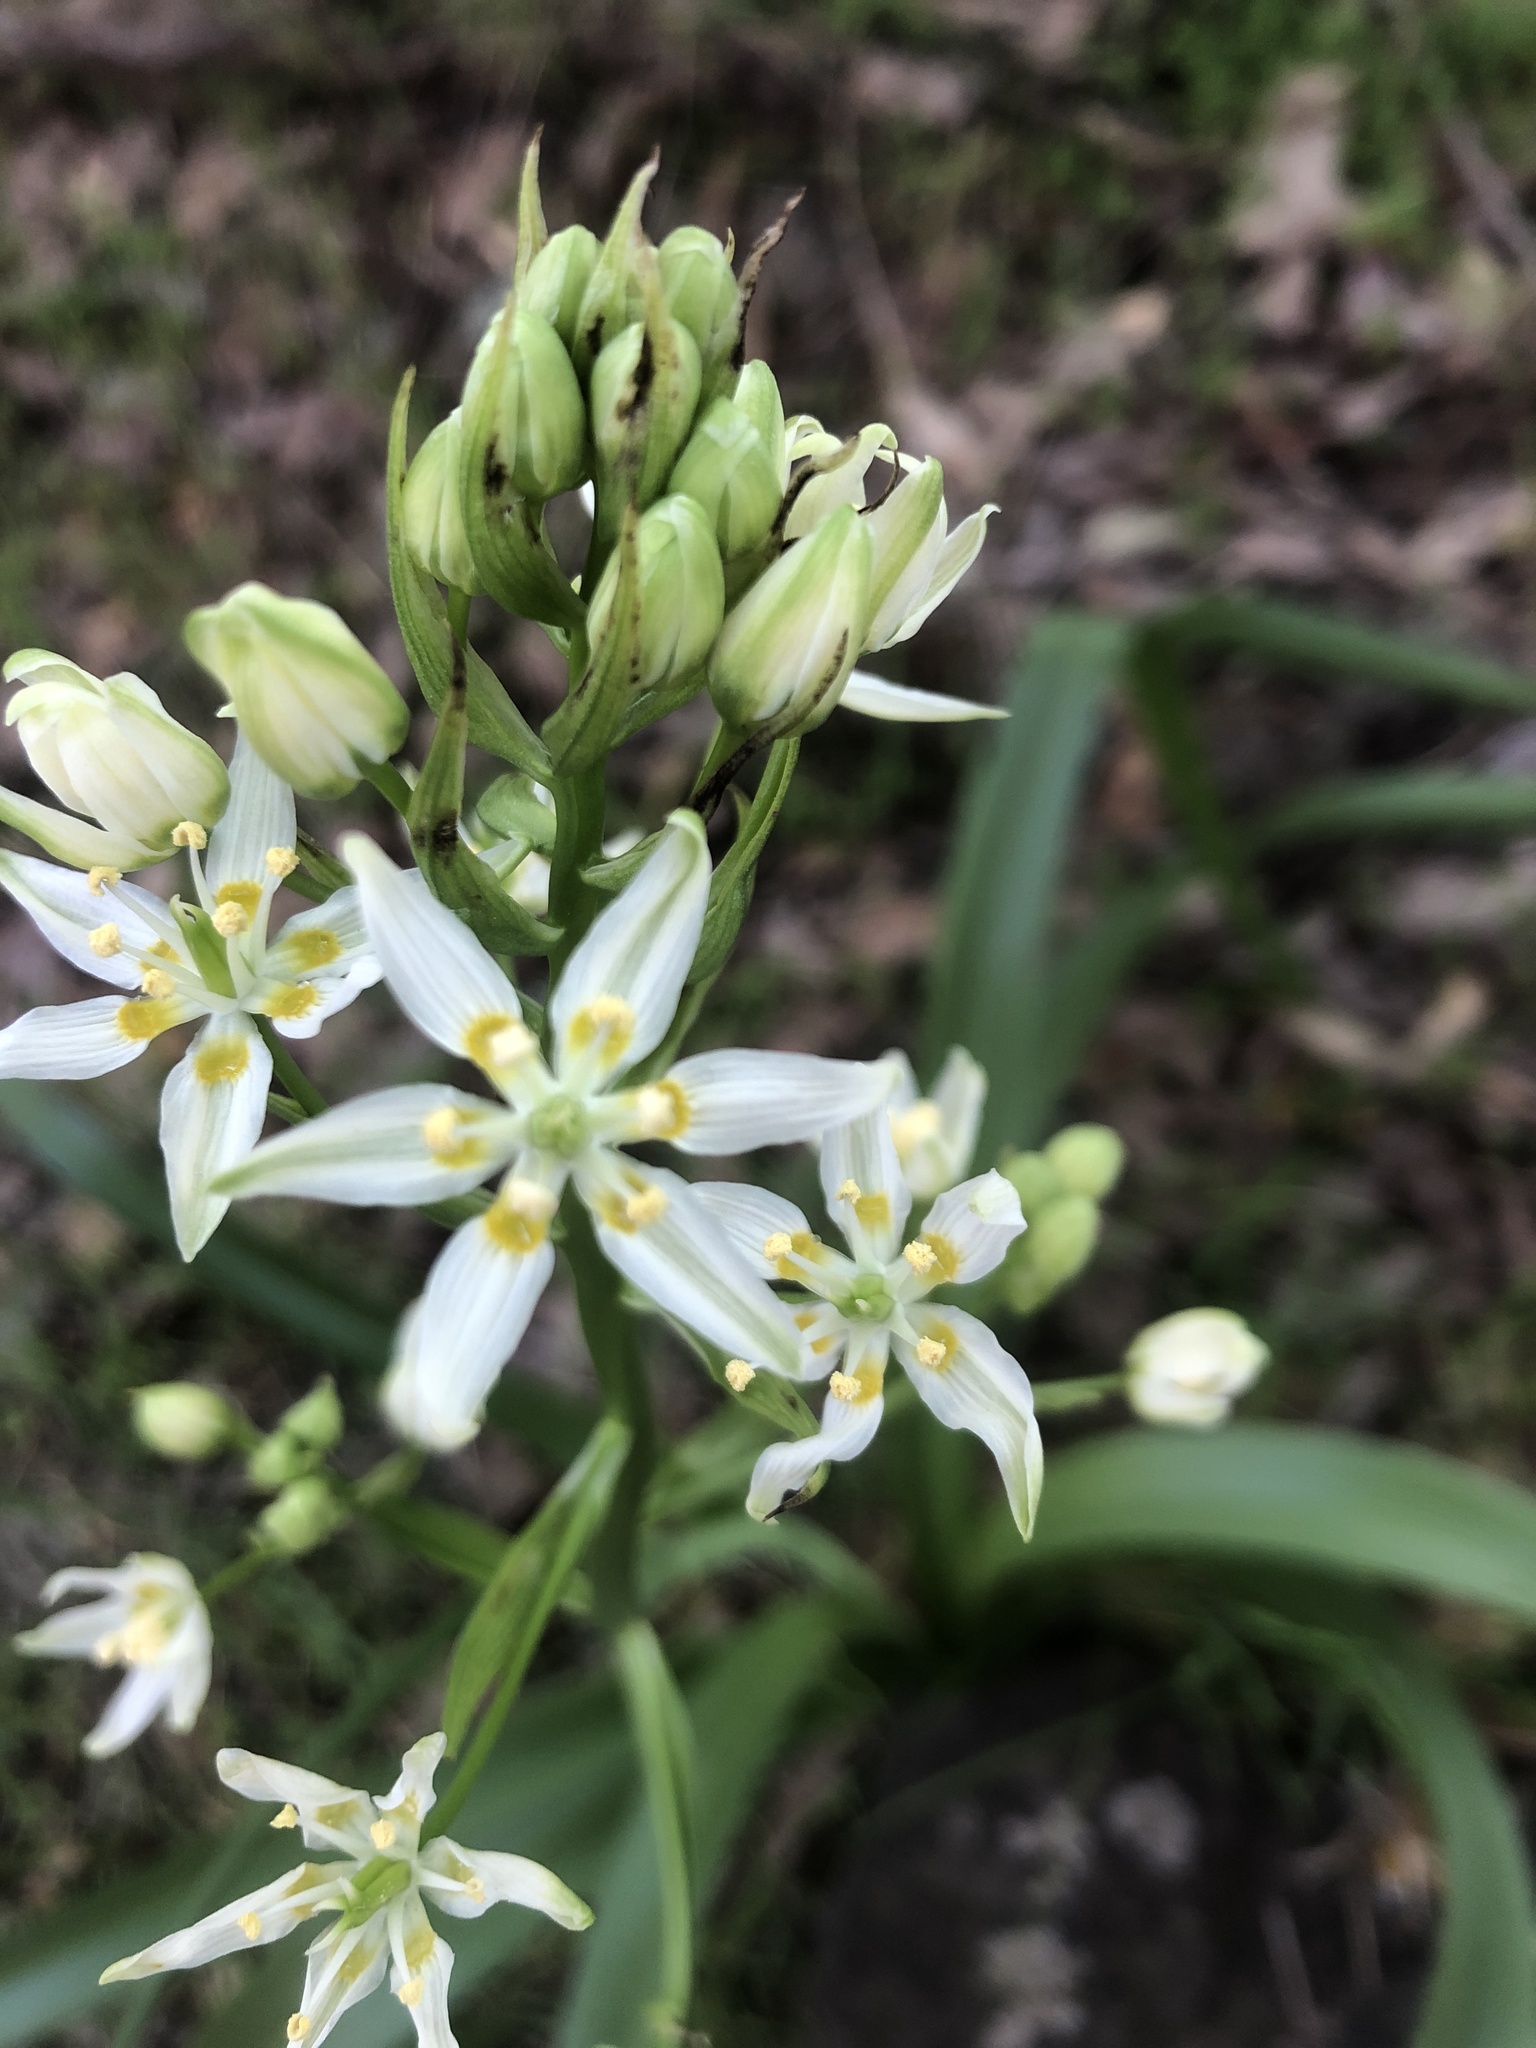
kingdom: Plantae
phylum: Tracheophyta
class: Liliopsida
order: Liliales
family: Melanthiaceae
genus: Toxicoscordion
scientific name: Toxicoscordion fremontii
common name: Fremont's death camas
